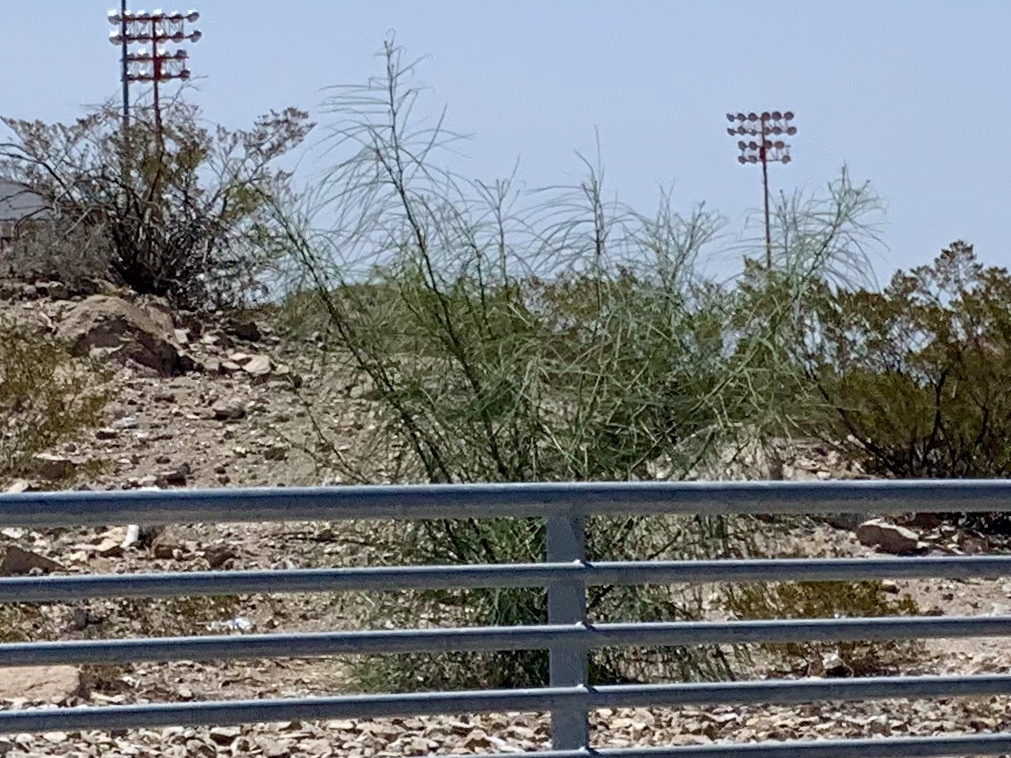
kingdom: Plantae
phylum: Tracheophyta
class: Magnoliopsida
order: Fabales
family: Fabaceae
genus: Parkinsonia
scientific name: Parkinsonia aculeata
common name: Jerusalem thorn
